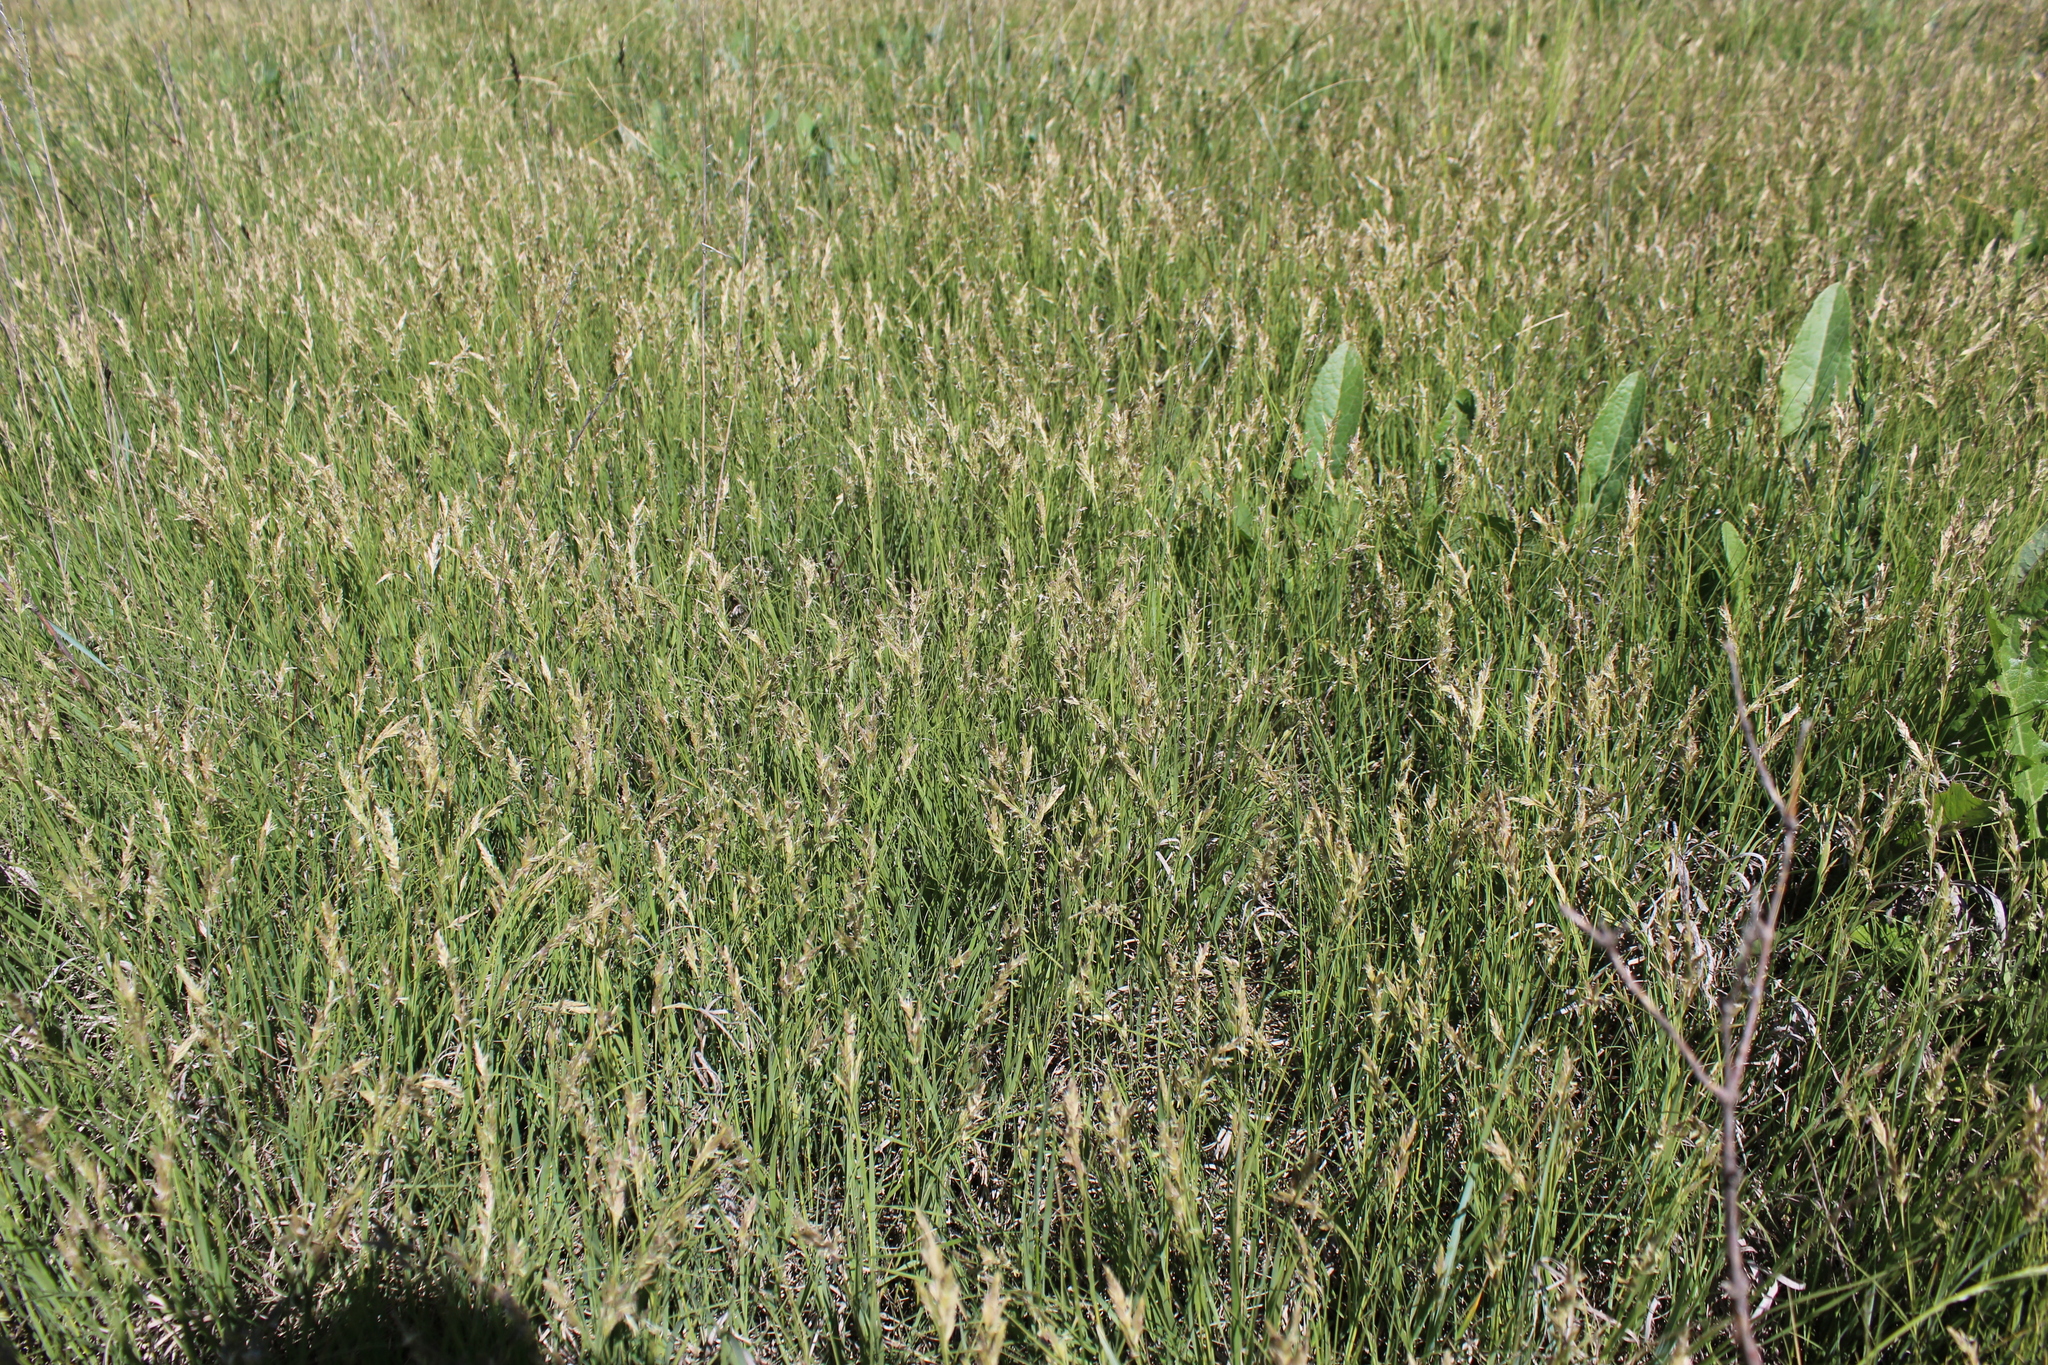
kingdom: Plantae
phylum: Tracheophyta
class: Liliopsida
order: Poales
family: Poaceae
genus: Distichlis
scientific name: Distichlis spicata
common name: Saltgrass
